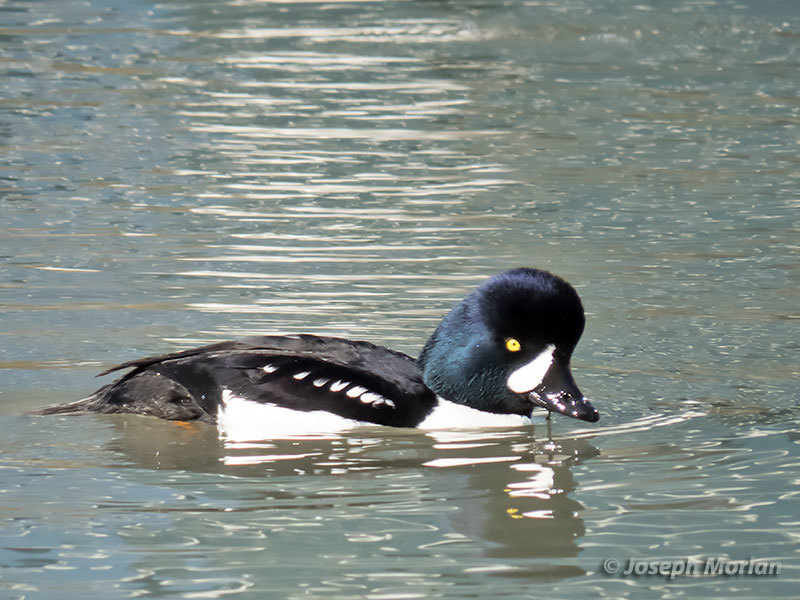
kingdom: Animalia
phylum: Chordata
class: Aves
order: Anseriformes
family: Anatidae
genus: Bucephala
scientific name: Bucephala islandica
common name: Barrow's goldeneye
